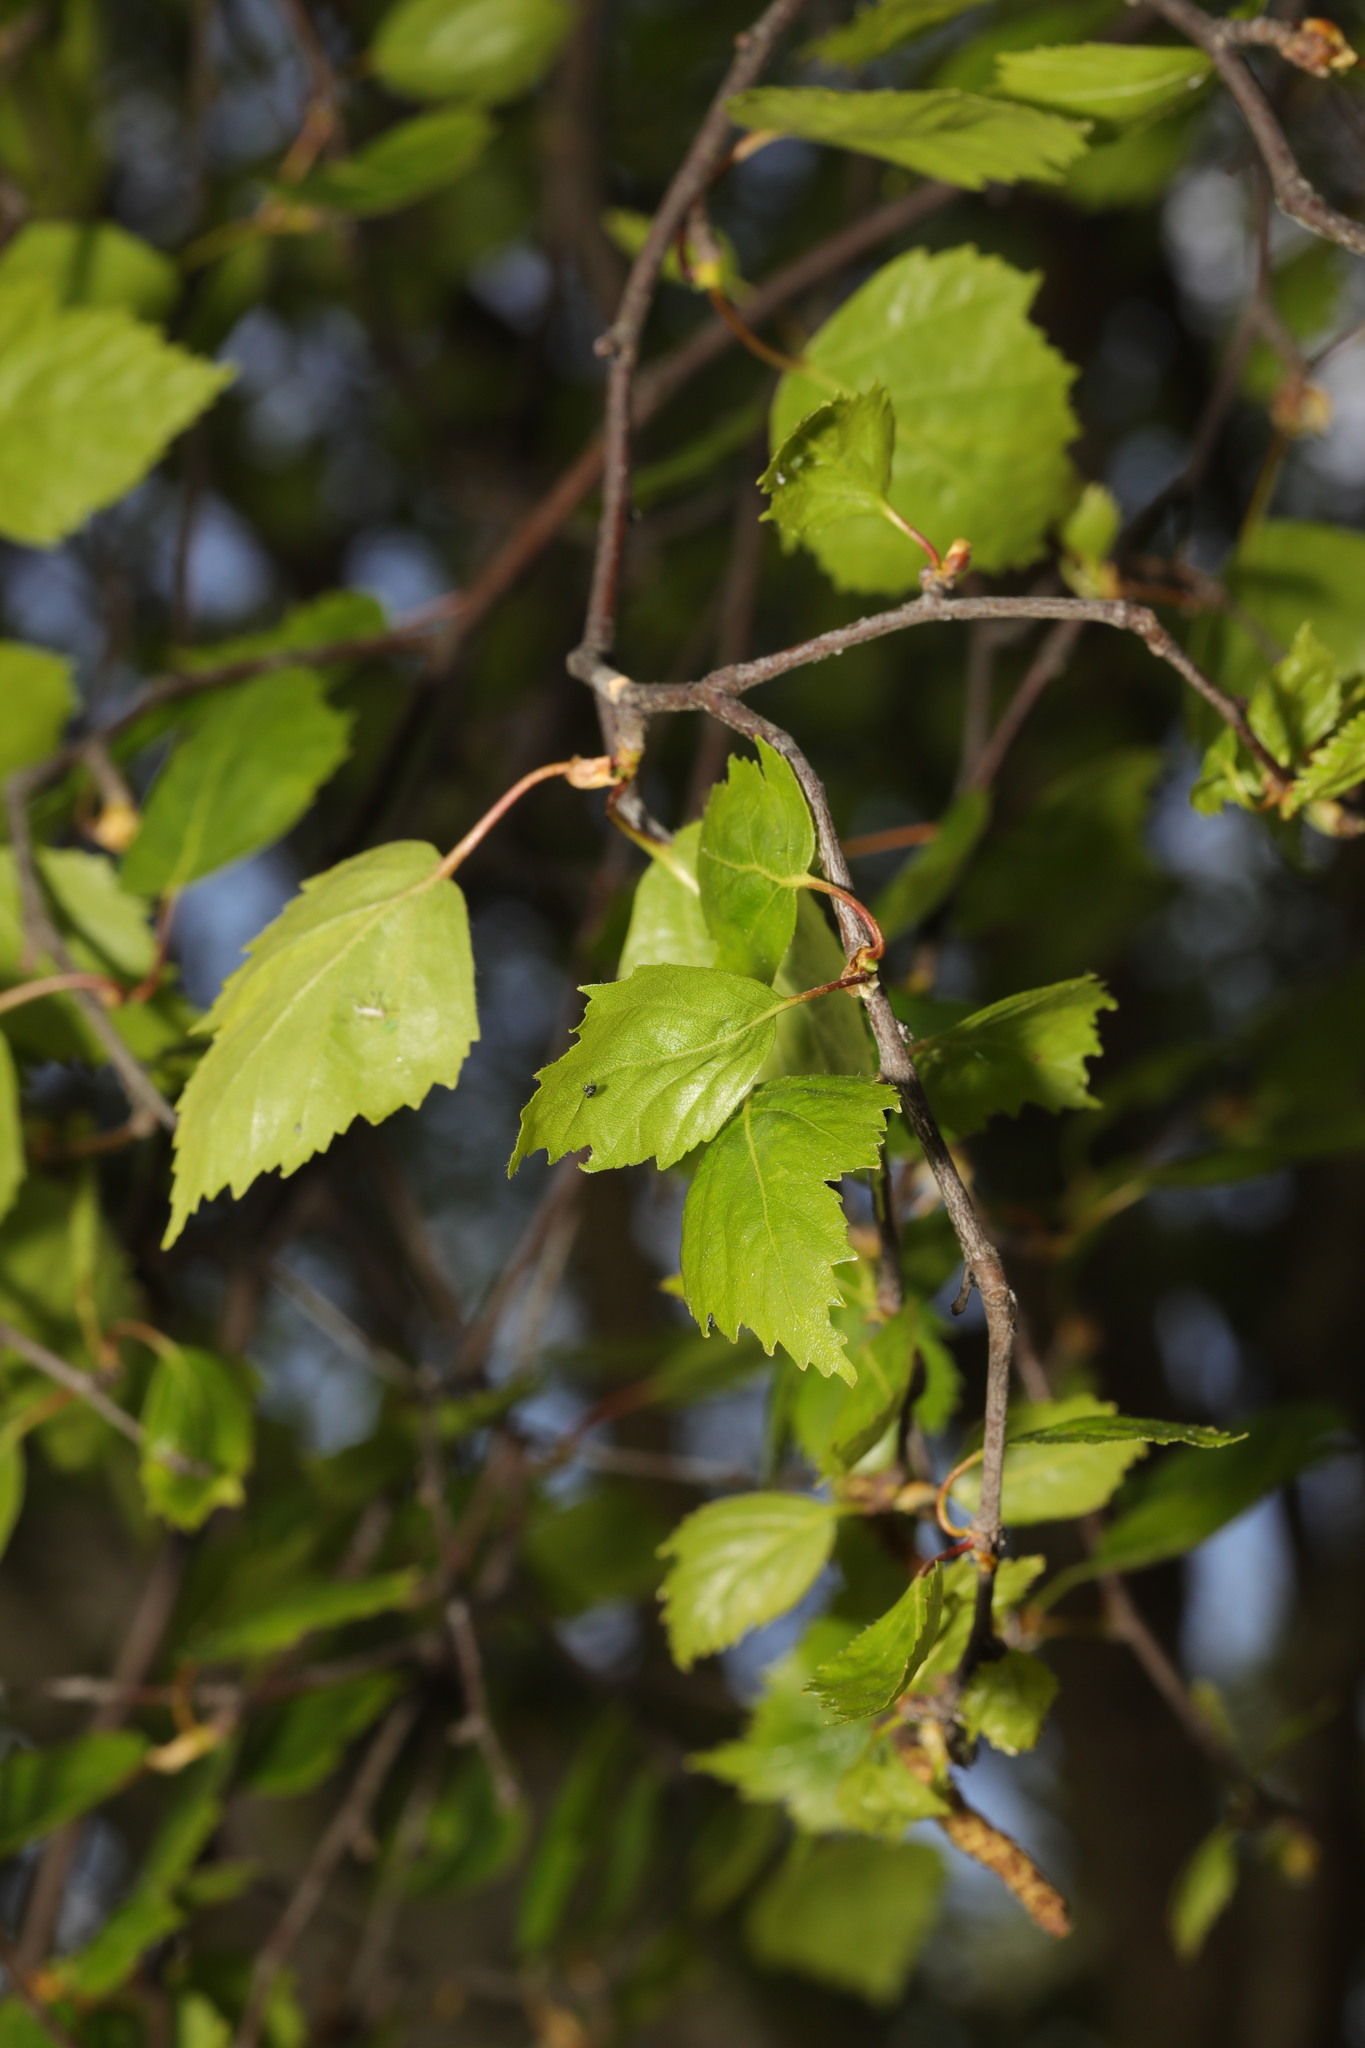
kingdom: Plantae
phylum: Tracheophyta
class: Magnoliopsida
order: Fagales
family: Betulaceae
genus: Betula
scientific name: Betula pendula
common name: Silver birch
